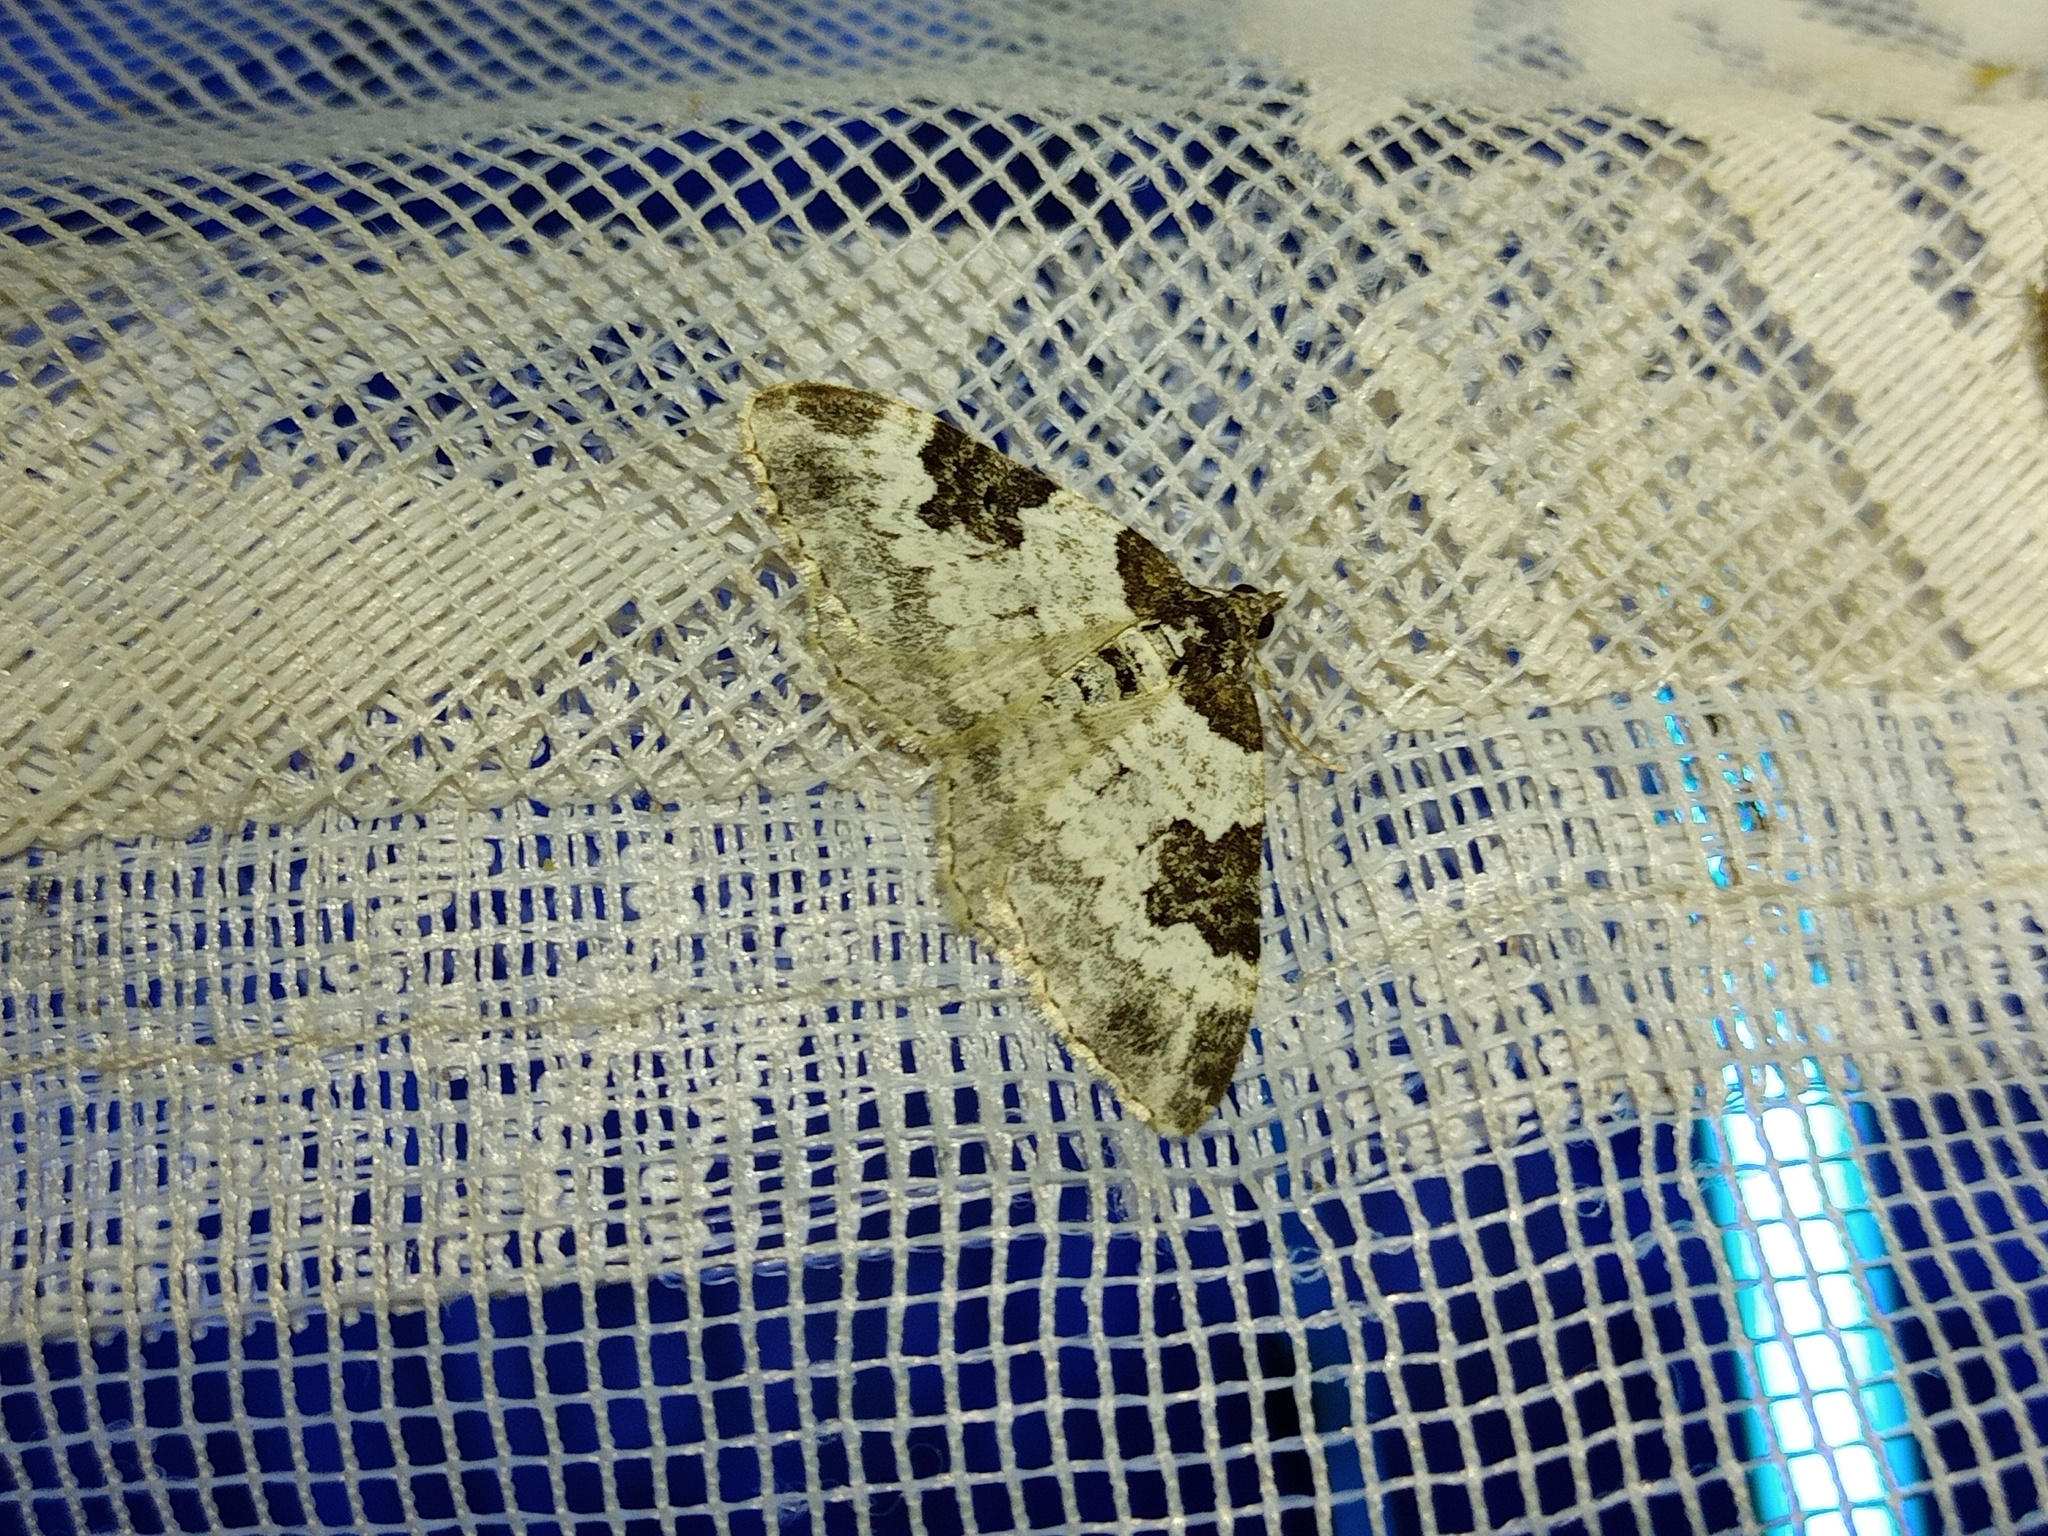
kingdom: Animalia
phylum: Arthropoda
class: Insecta
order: Lepidoptera
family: Geometridae
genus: Xanthorhoe
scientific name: Xanthorhoe fluctuata
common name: Garden carpet
